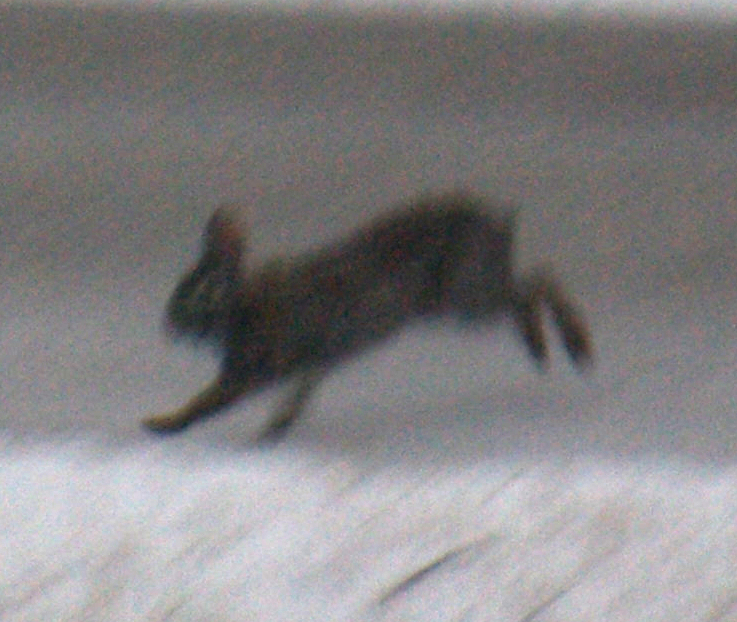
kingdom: Animalia
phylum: Chordata
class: Mammalia
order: Lagomorpha
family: Leporidae
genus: Sylvilagus
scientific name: Sylvilagus floridanus
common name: Eastern cottontail
